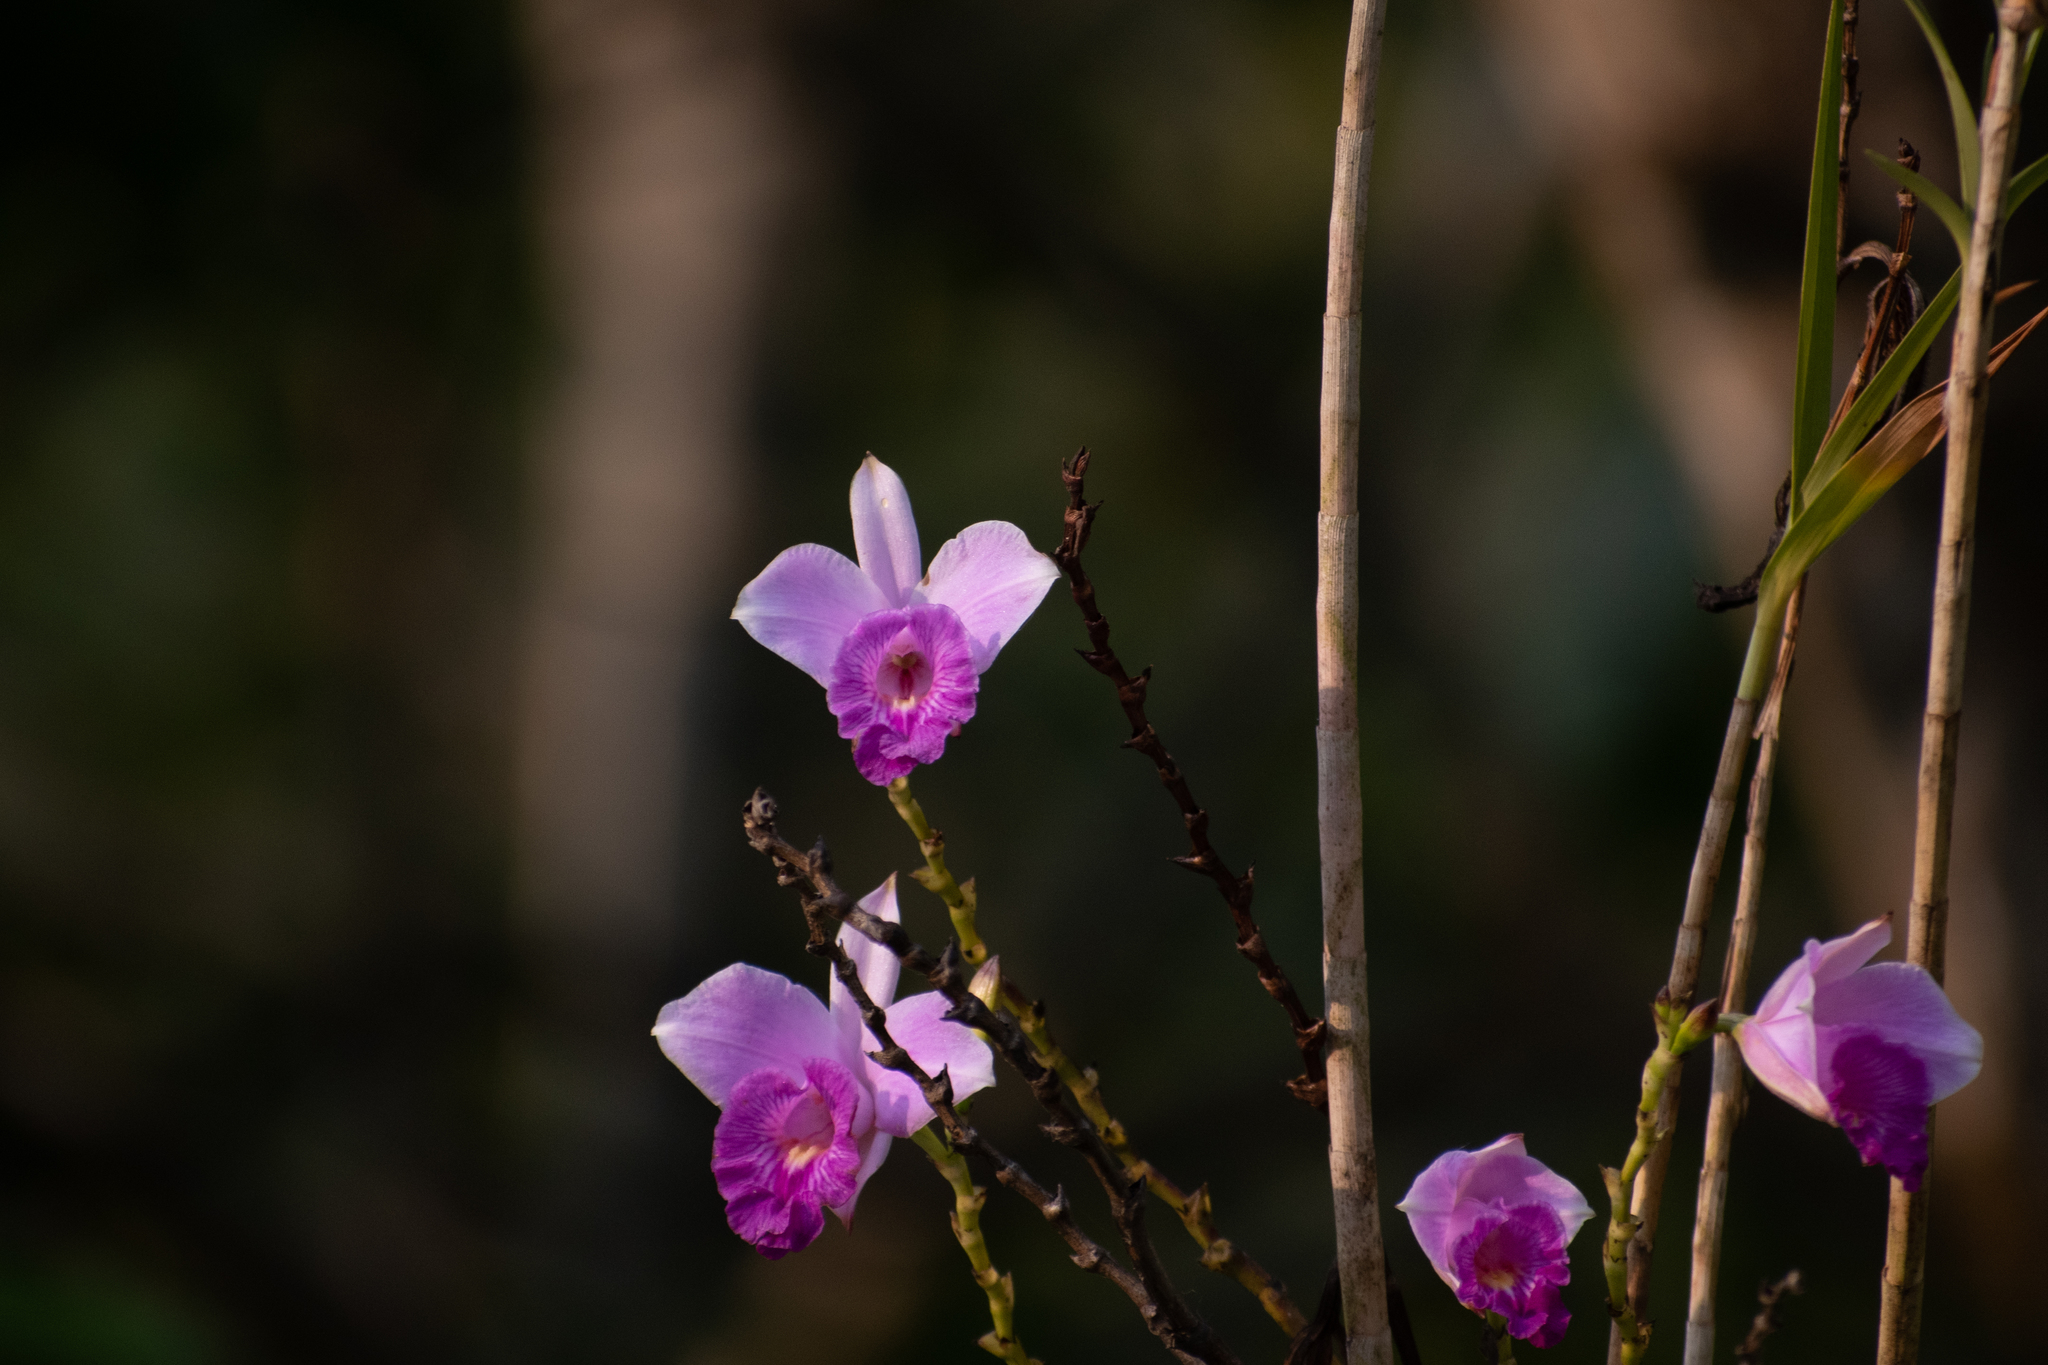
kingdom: Plantae
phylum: Tracheophyta
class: Liliopsida
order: Asparagales
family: Orchidaceae
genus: Arundina
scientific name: Arundina graminifolia
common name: Bamboo orchid
